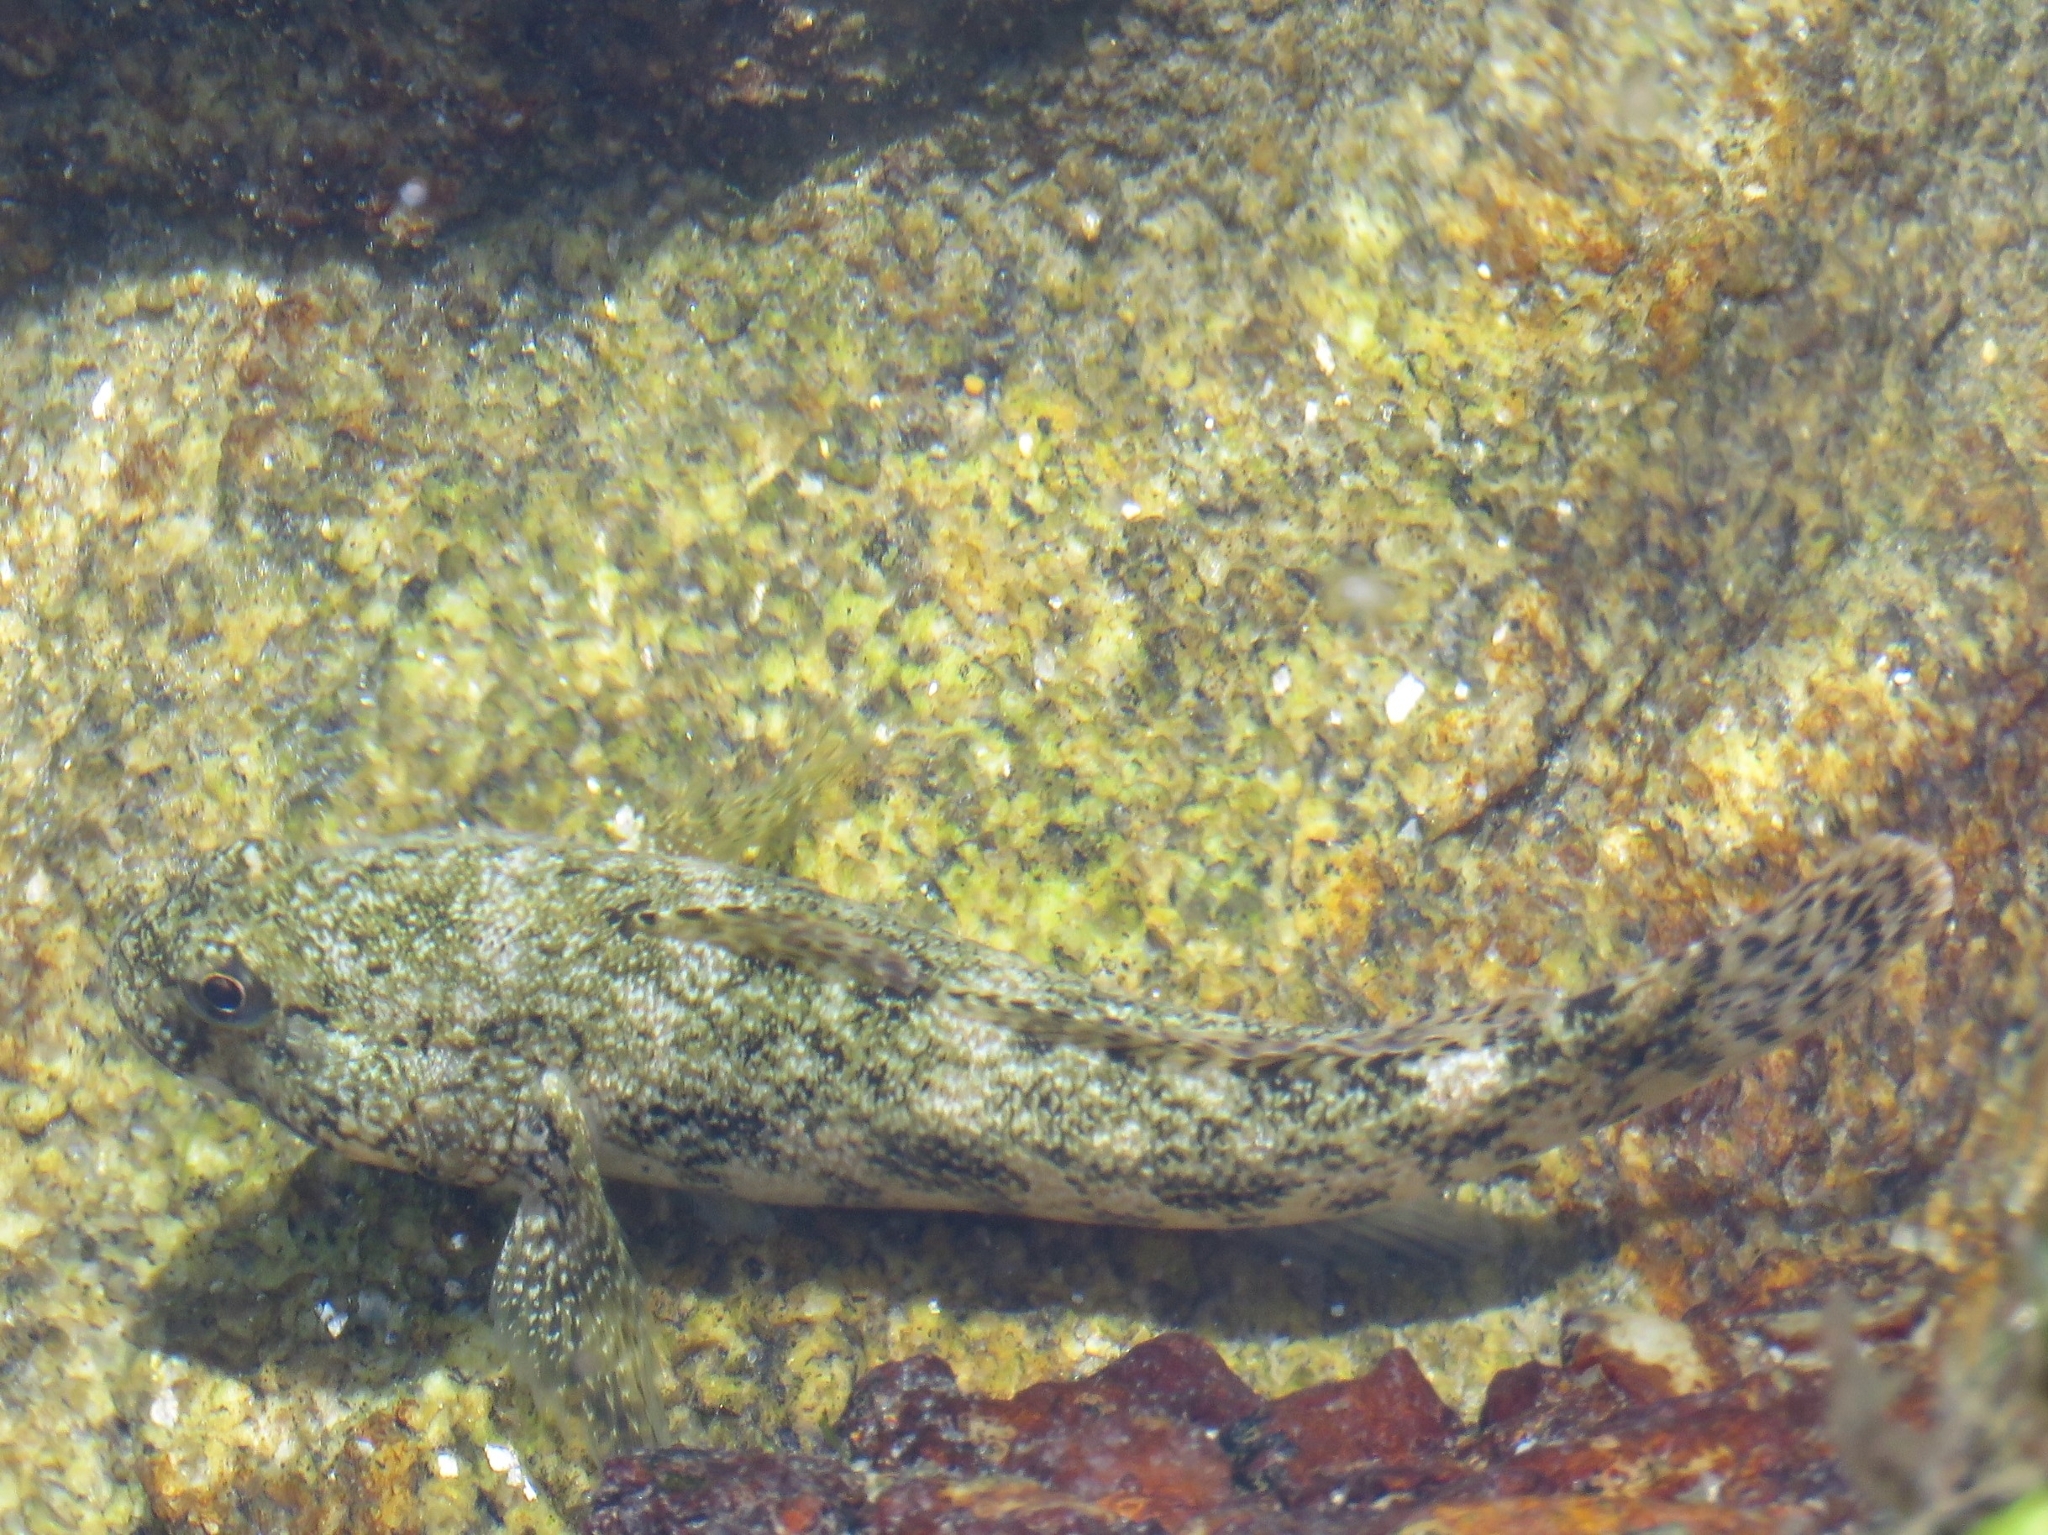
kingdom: Animalia
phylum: Chordata
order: Perciformes
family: Gobiidae
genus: Gobius
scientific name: Gobius cobitis
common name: Giant goby
